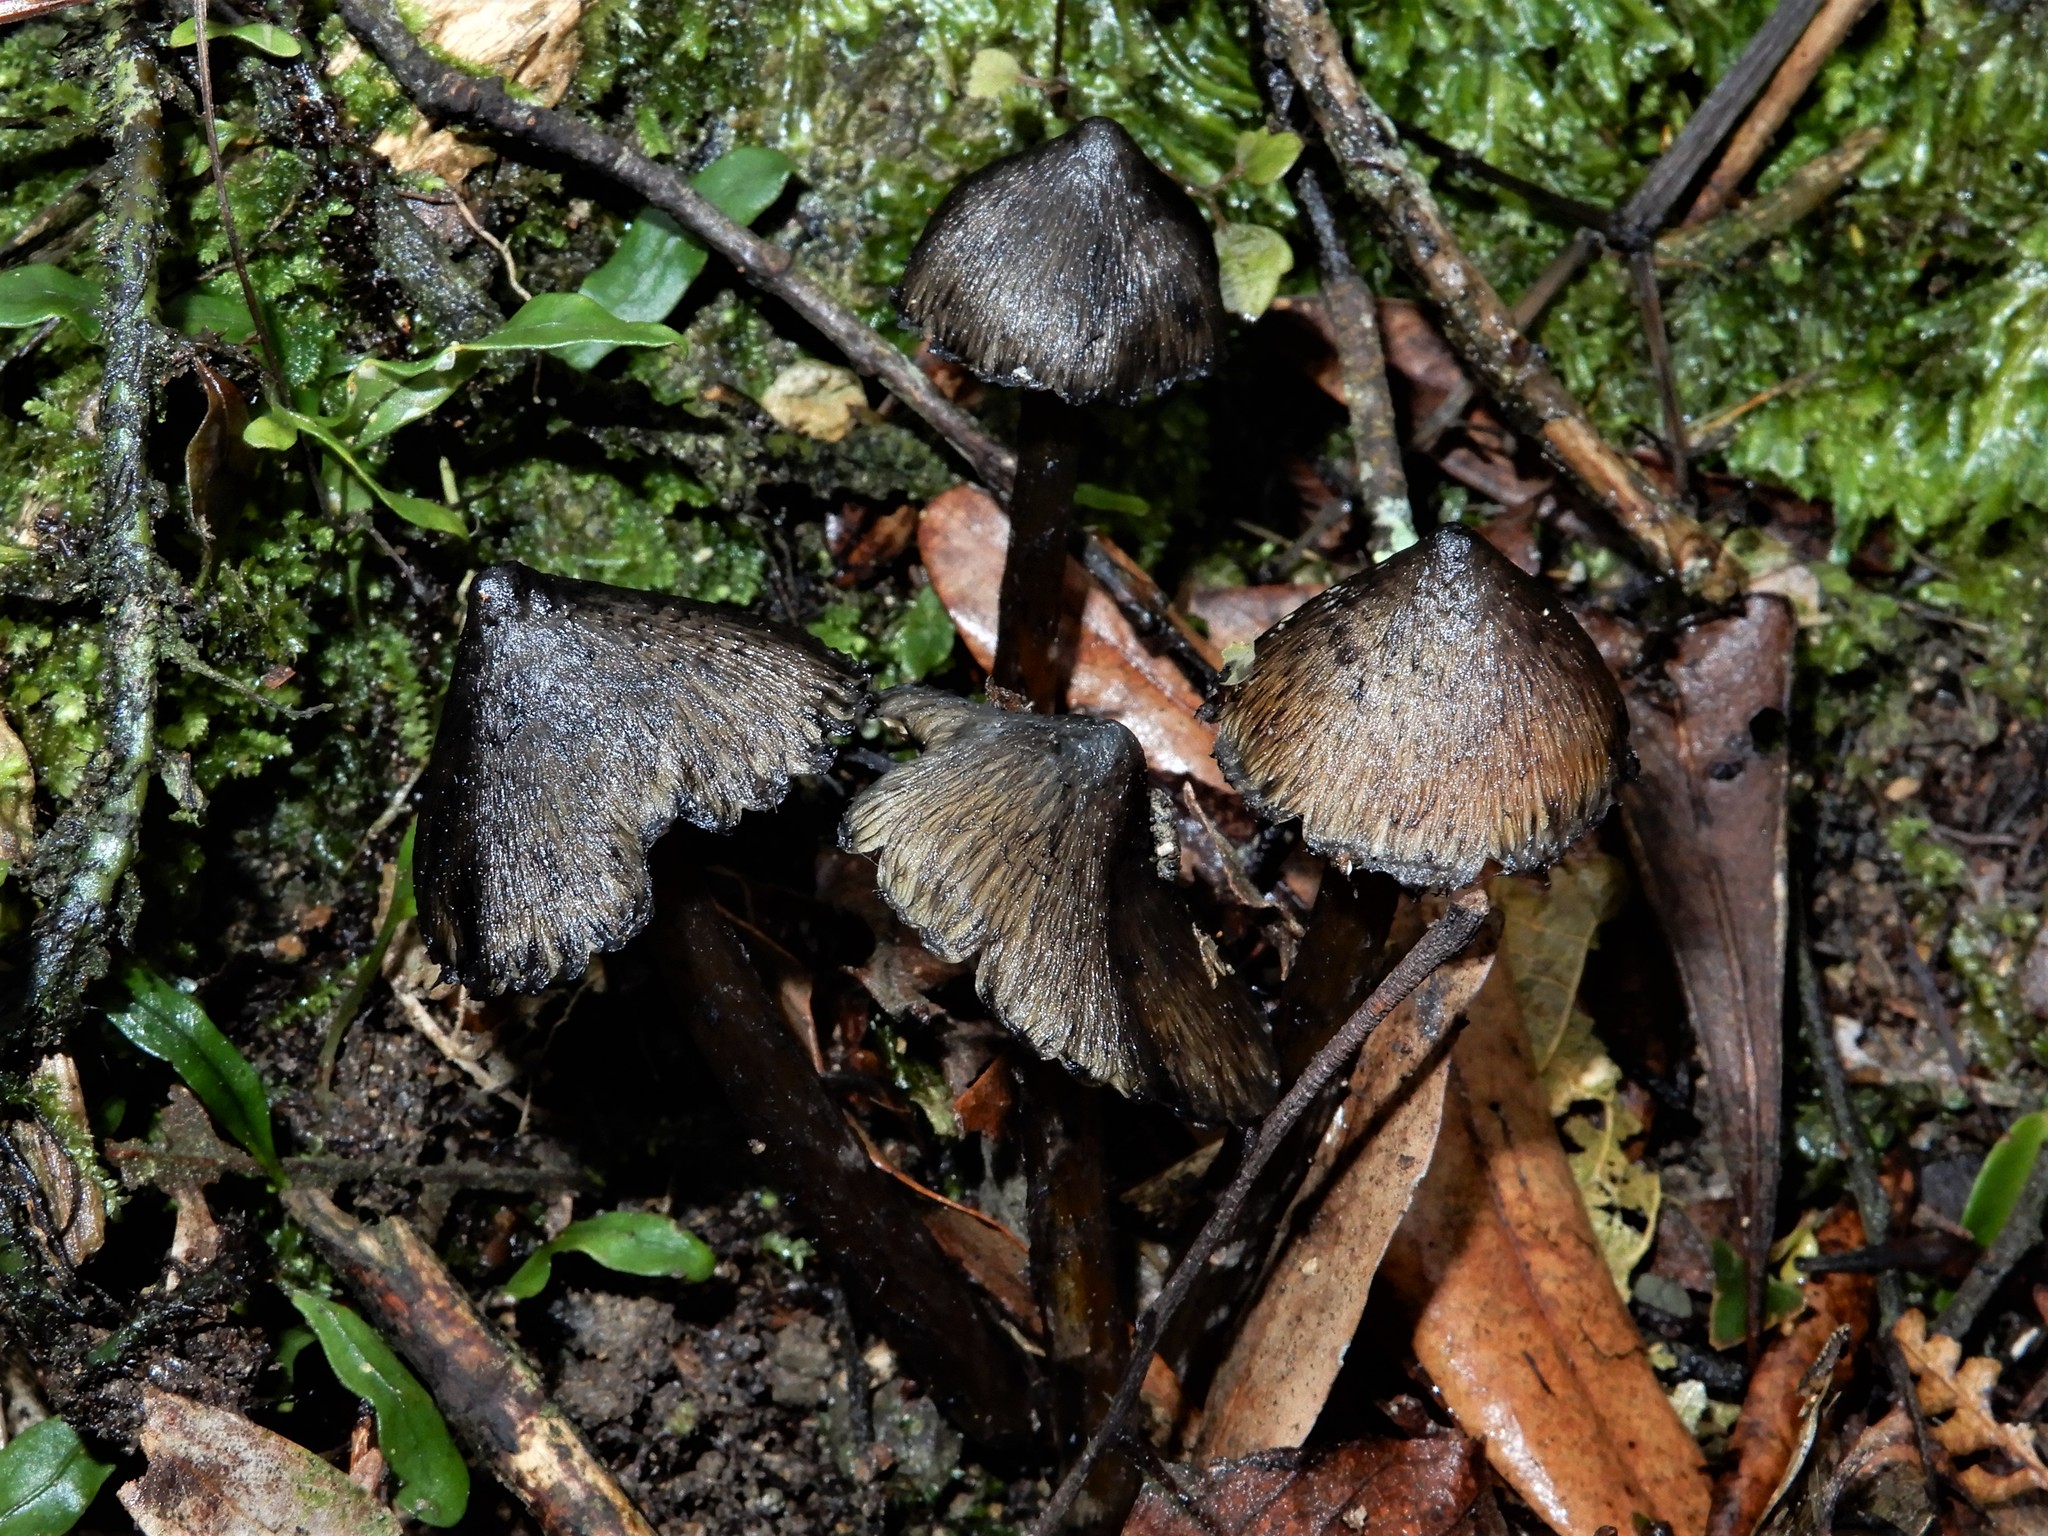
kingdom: Fungi
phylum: Basidiomycota
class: Agaricomycetes
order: Agaricales
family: Hygrophoraceae
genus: Hygrocybe
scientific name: Hygrocybe astatogala
